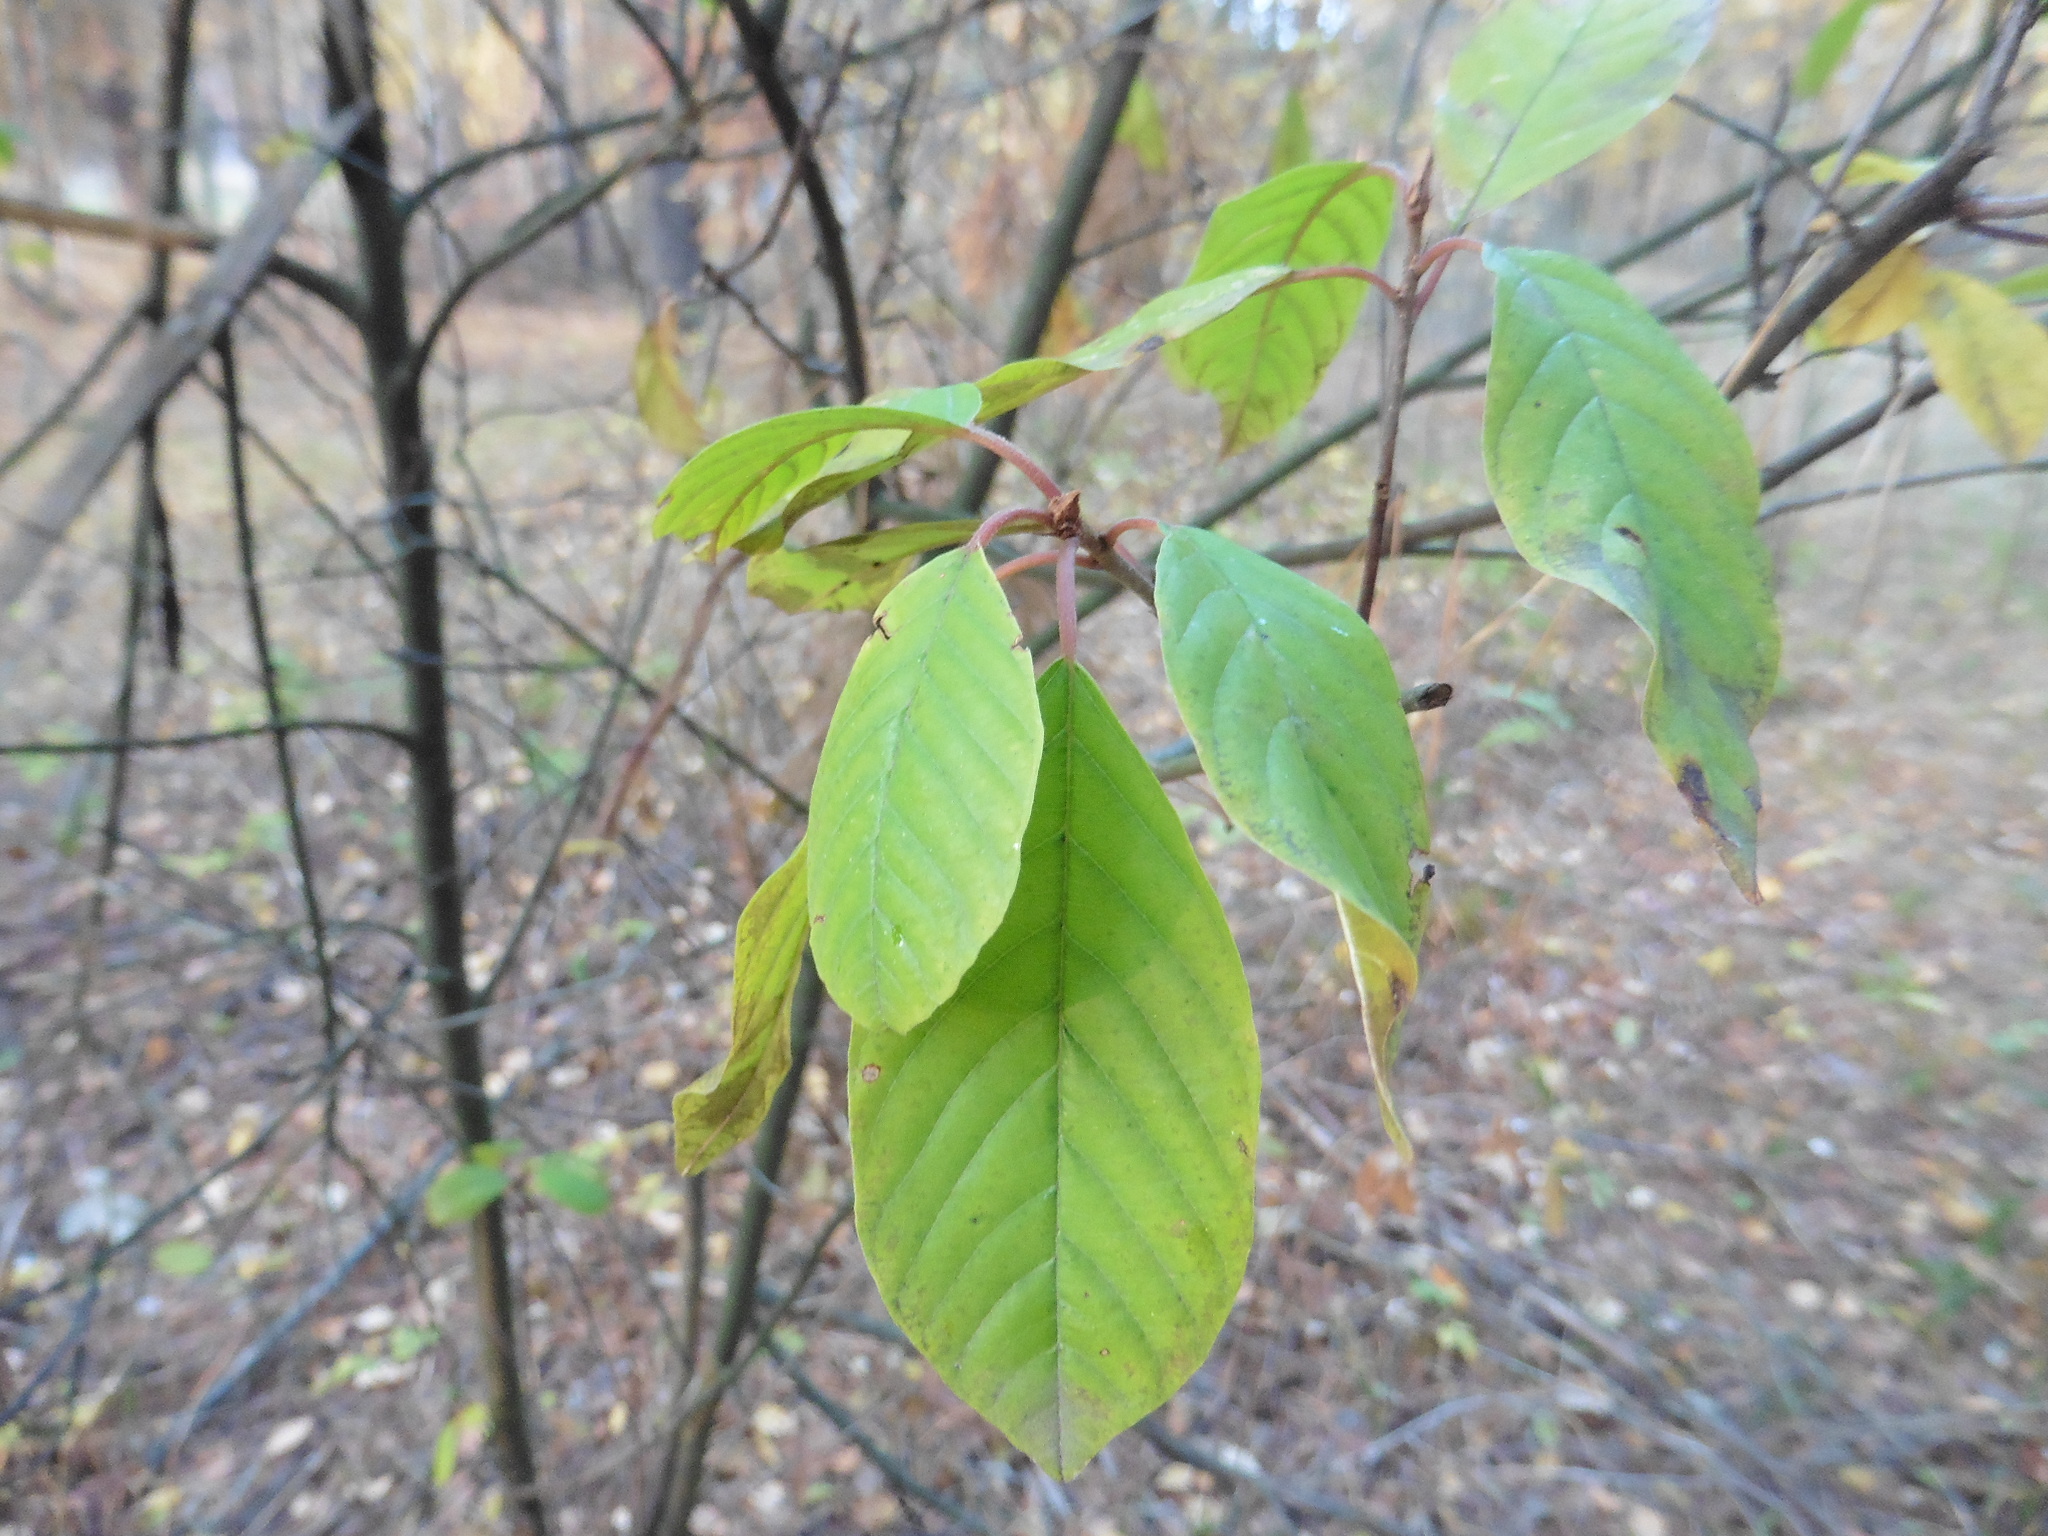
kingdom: Plantae
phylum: Tracheophyta
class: Magnoliopsida
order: Rosales
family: Rhamnaceae
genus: Frangula
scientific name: Frangula alnus
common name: Alder buckthorn
